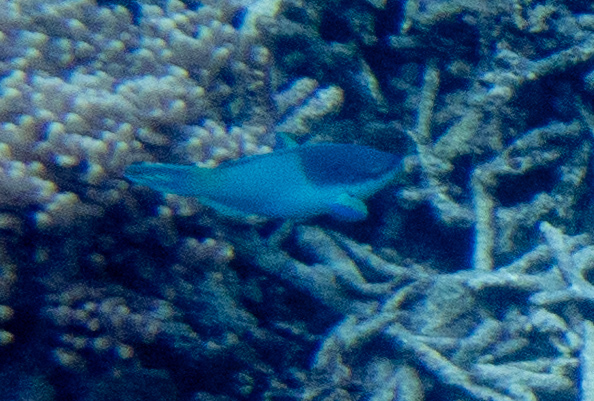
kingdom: Animalia
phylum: Chordata
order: Perciformes
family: Scaridae
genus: Scarus
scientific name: Scarus oviceps
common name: Blue parrotfish
